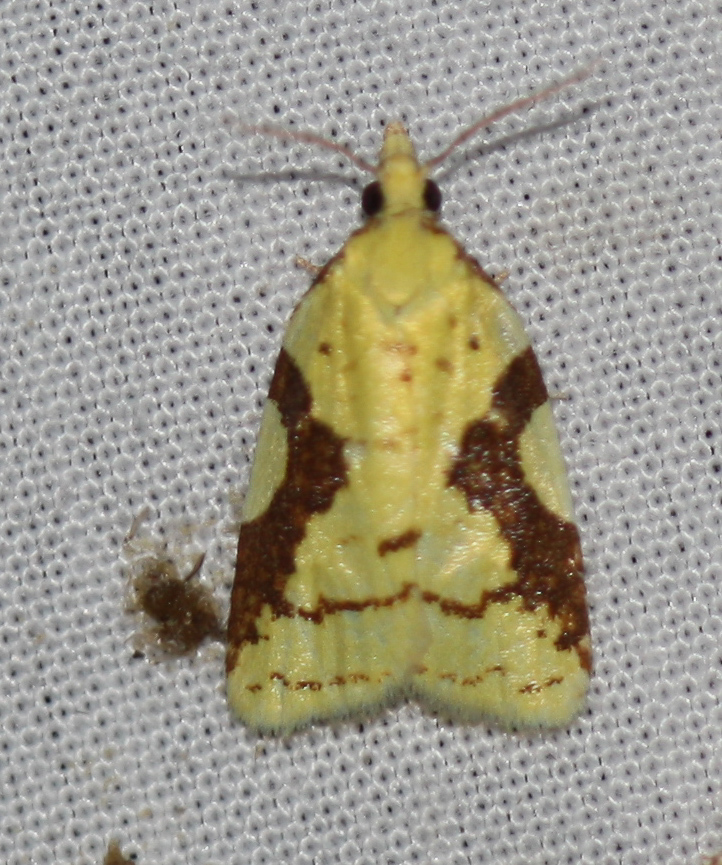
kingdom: Animalia
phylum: Arthropoda
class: Insecta
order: Lepidoptera
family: Tortricidae
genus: Cenopis
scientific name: Cenopis pettitana
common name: Maple-basswood leafroller moth
